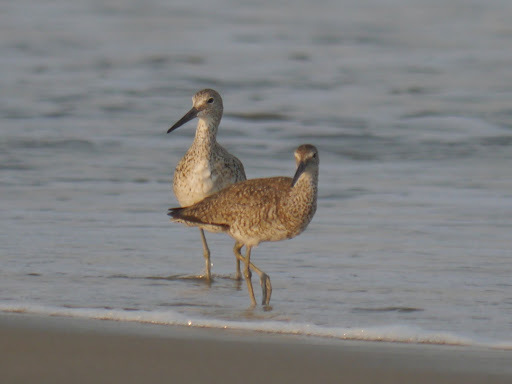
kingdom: Animalia
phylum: Chordata
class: Aves
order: Charadriiformes
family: Scolopacidae
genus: Tringa
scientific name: Tringa semipalmata
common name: Willet
